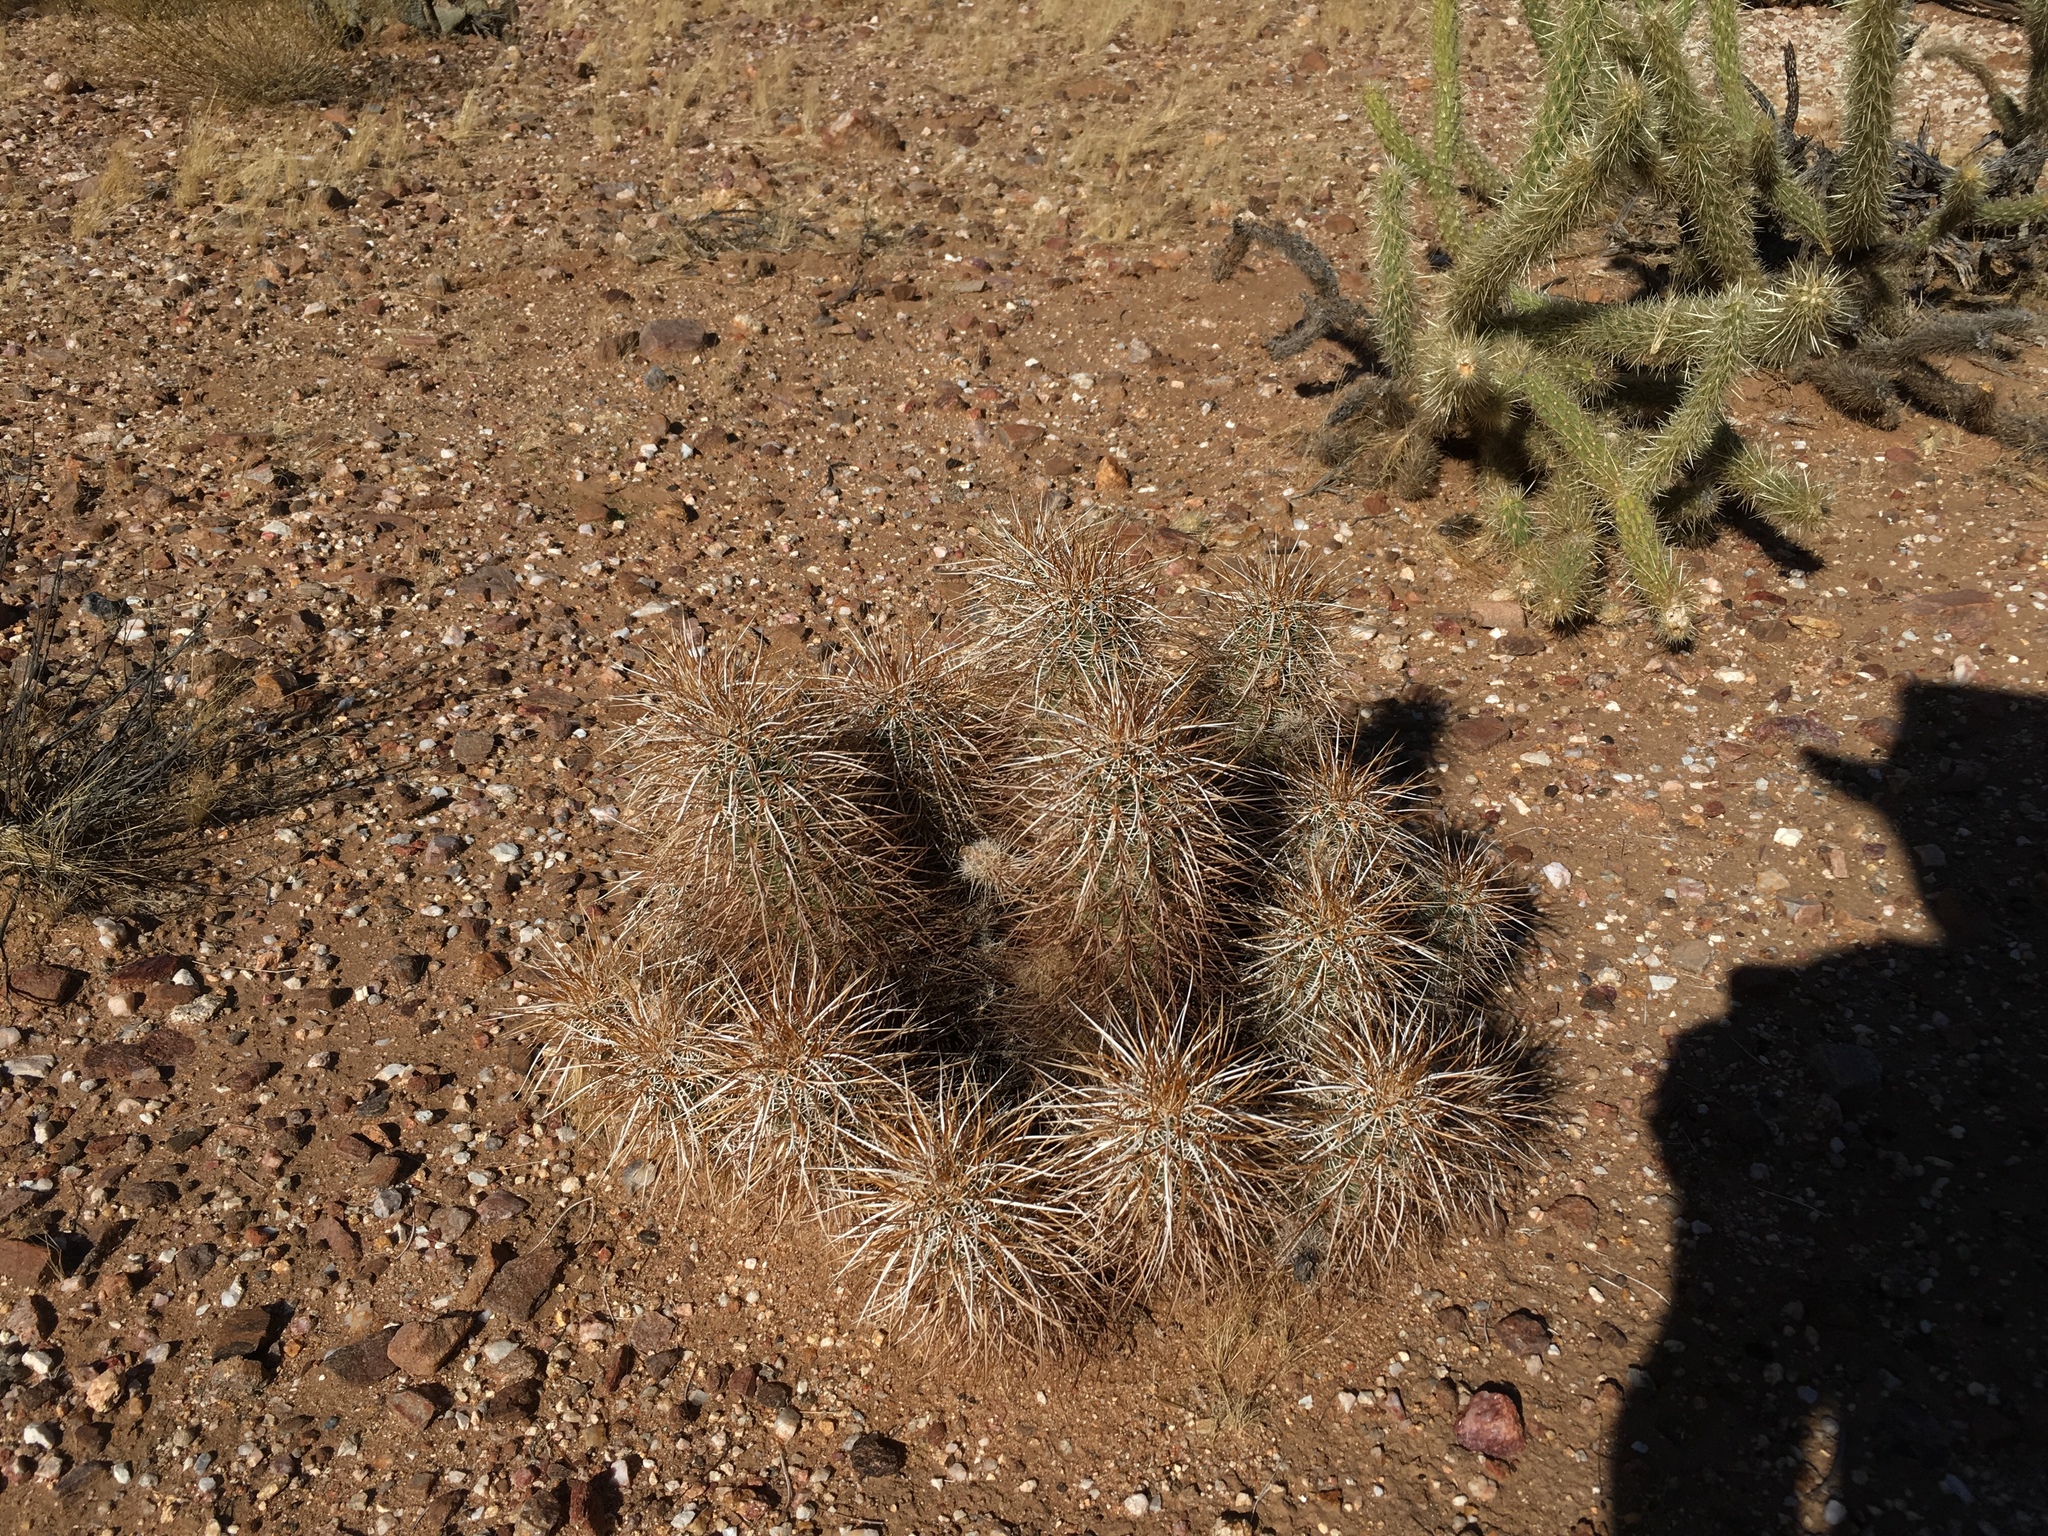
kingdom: Plantae
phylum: Tracheophyta
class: Magnoliopsida
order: Caryophyllales
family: Cactaceae
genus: Echinocereus
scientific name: Echinocereus engelmannii
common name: Engelmann's hedgehog cactus
